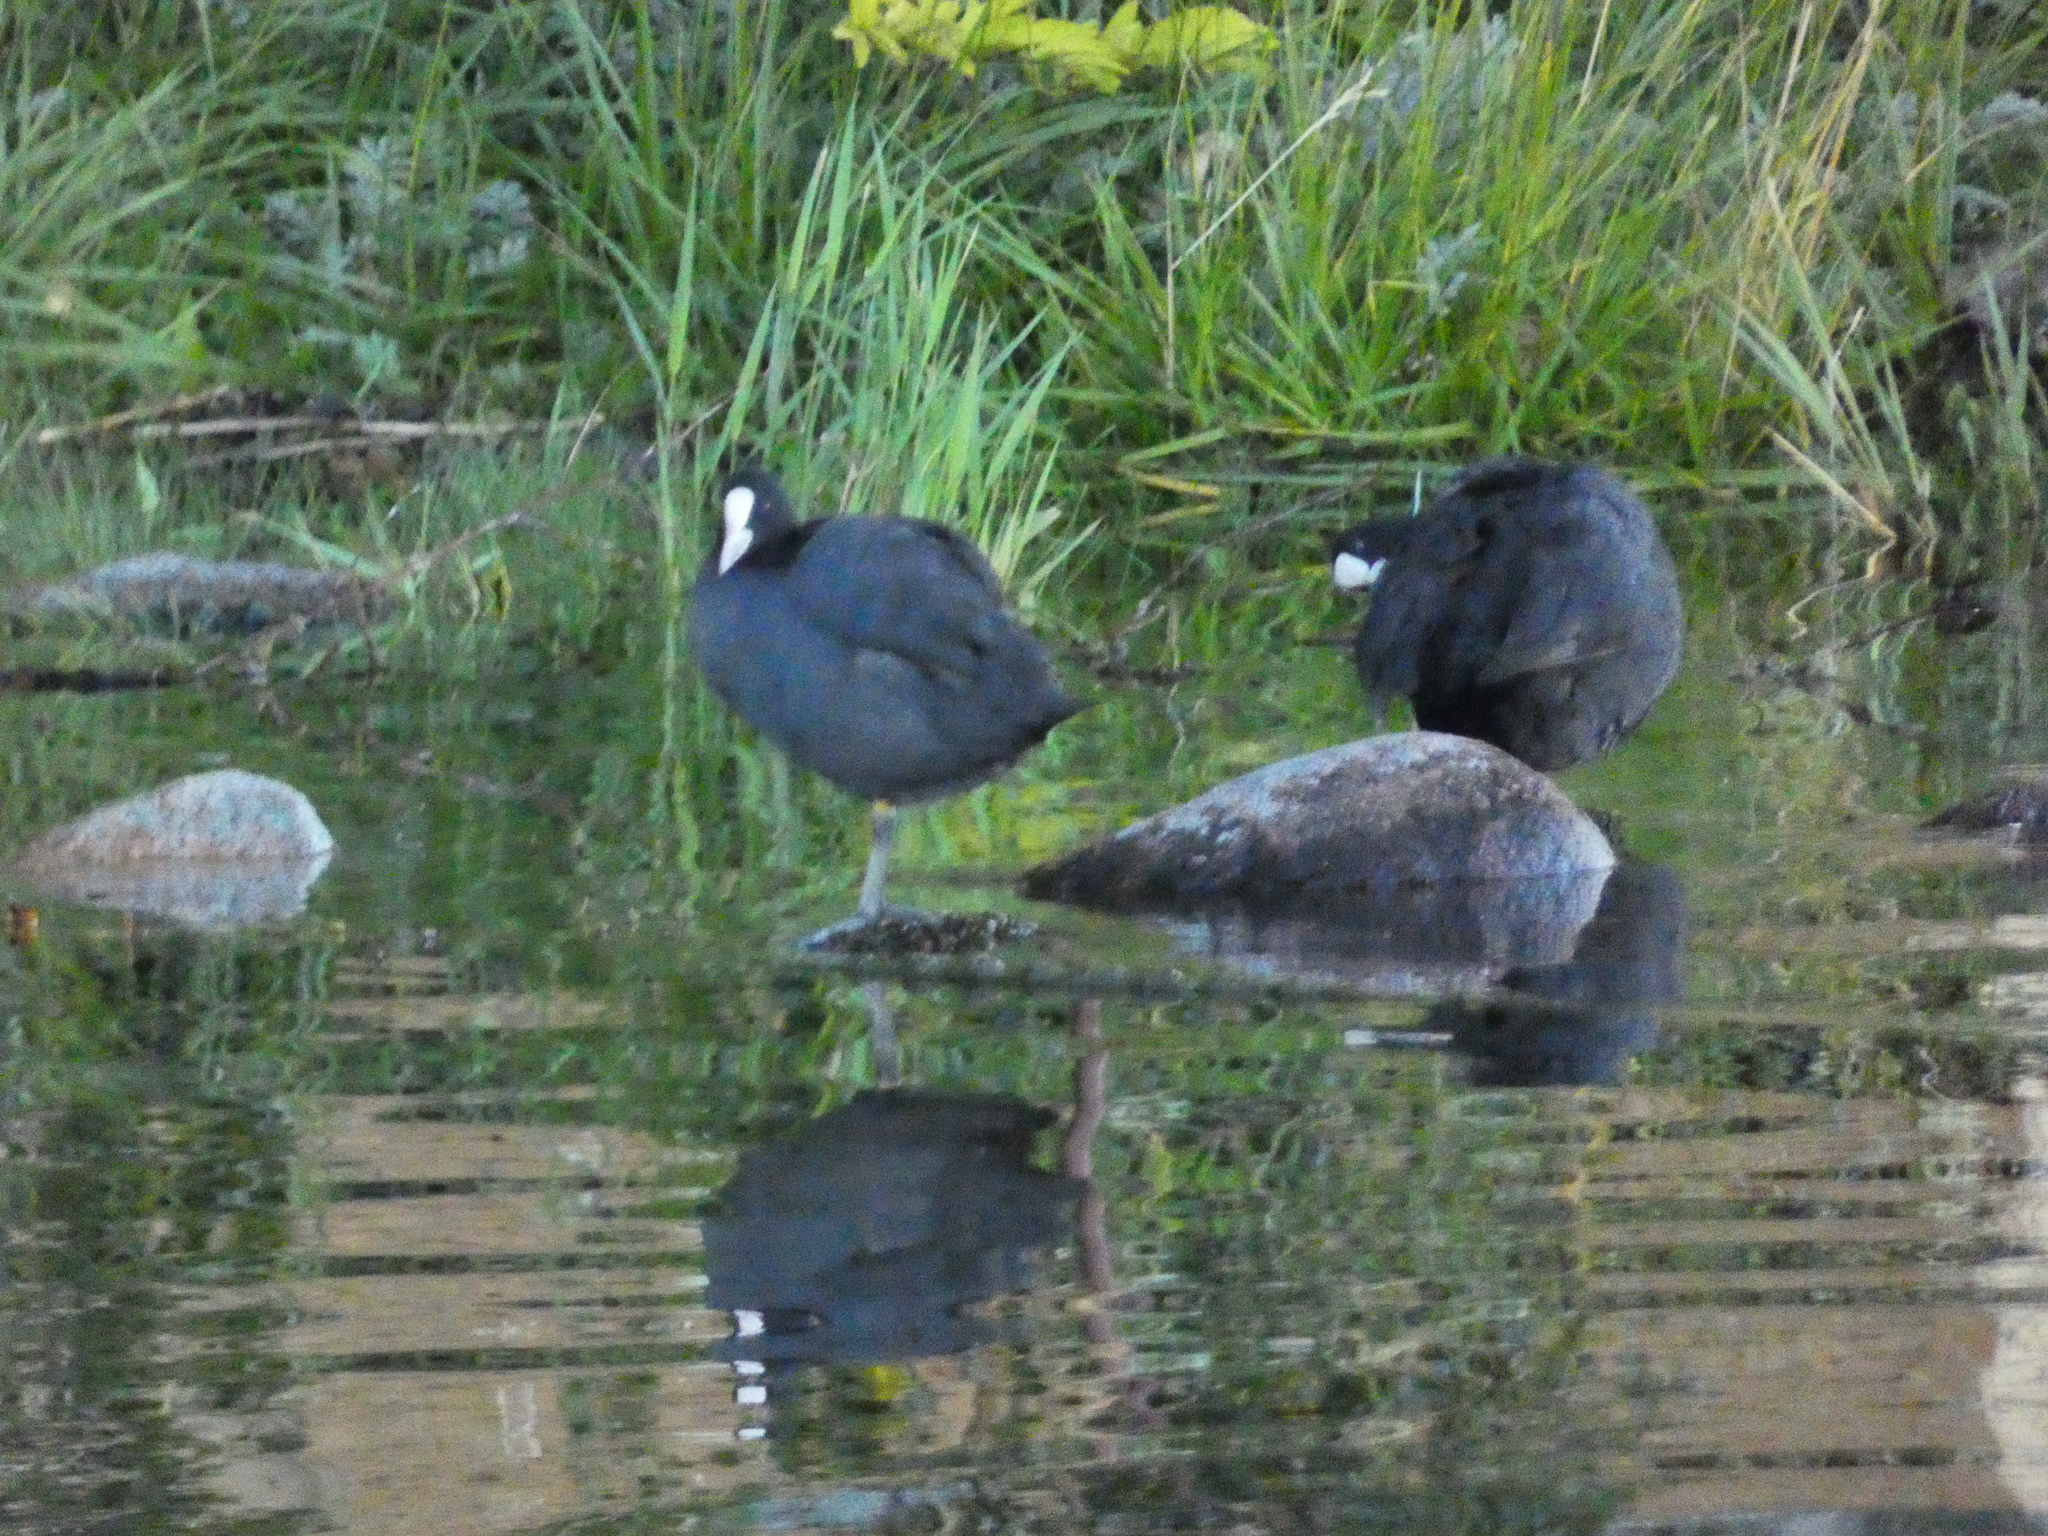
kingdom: Animalia
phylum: Chordata
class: Aves
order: Gruiformes
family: Rallidae
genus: Fulica
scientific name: Fulica atra
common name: Eurasian coot
